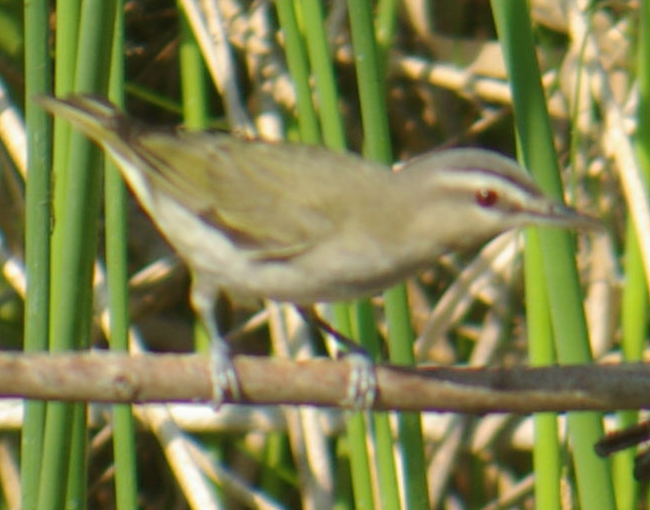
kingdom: Animalia
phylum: Chordata
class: Aves
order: Passeriformes
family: Vireonidae
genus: Vireo
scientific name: Vireo olivaceus
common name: Red-eyed vireo
